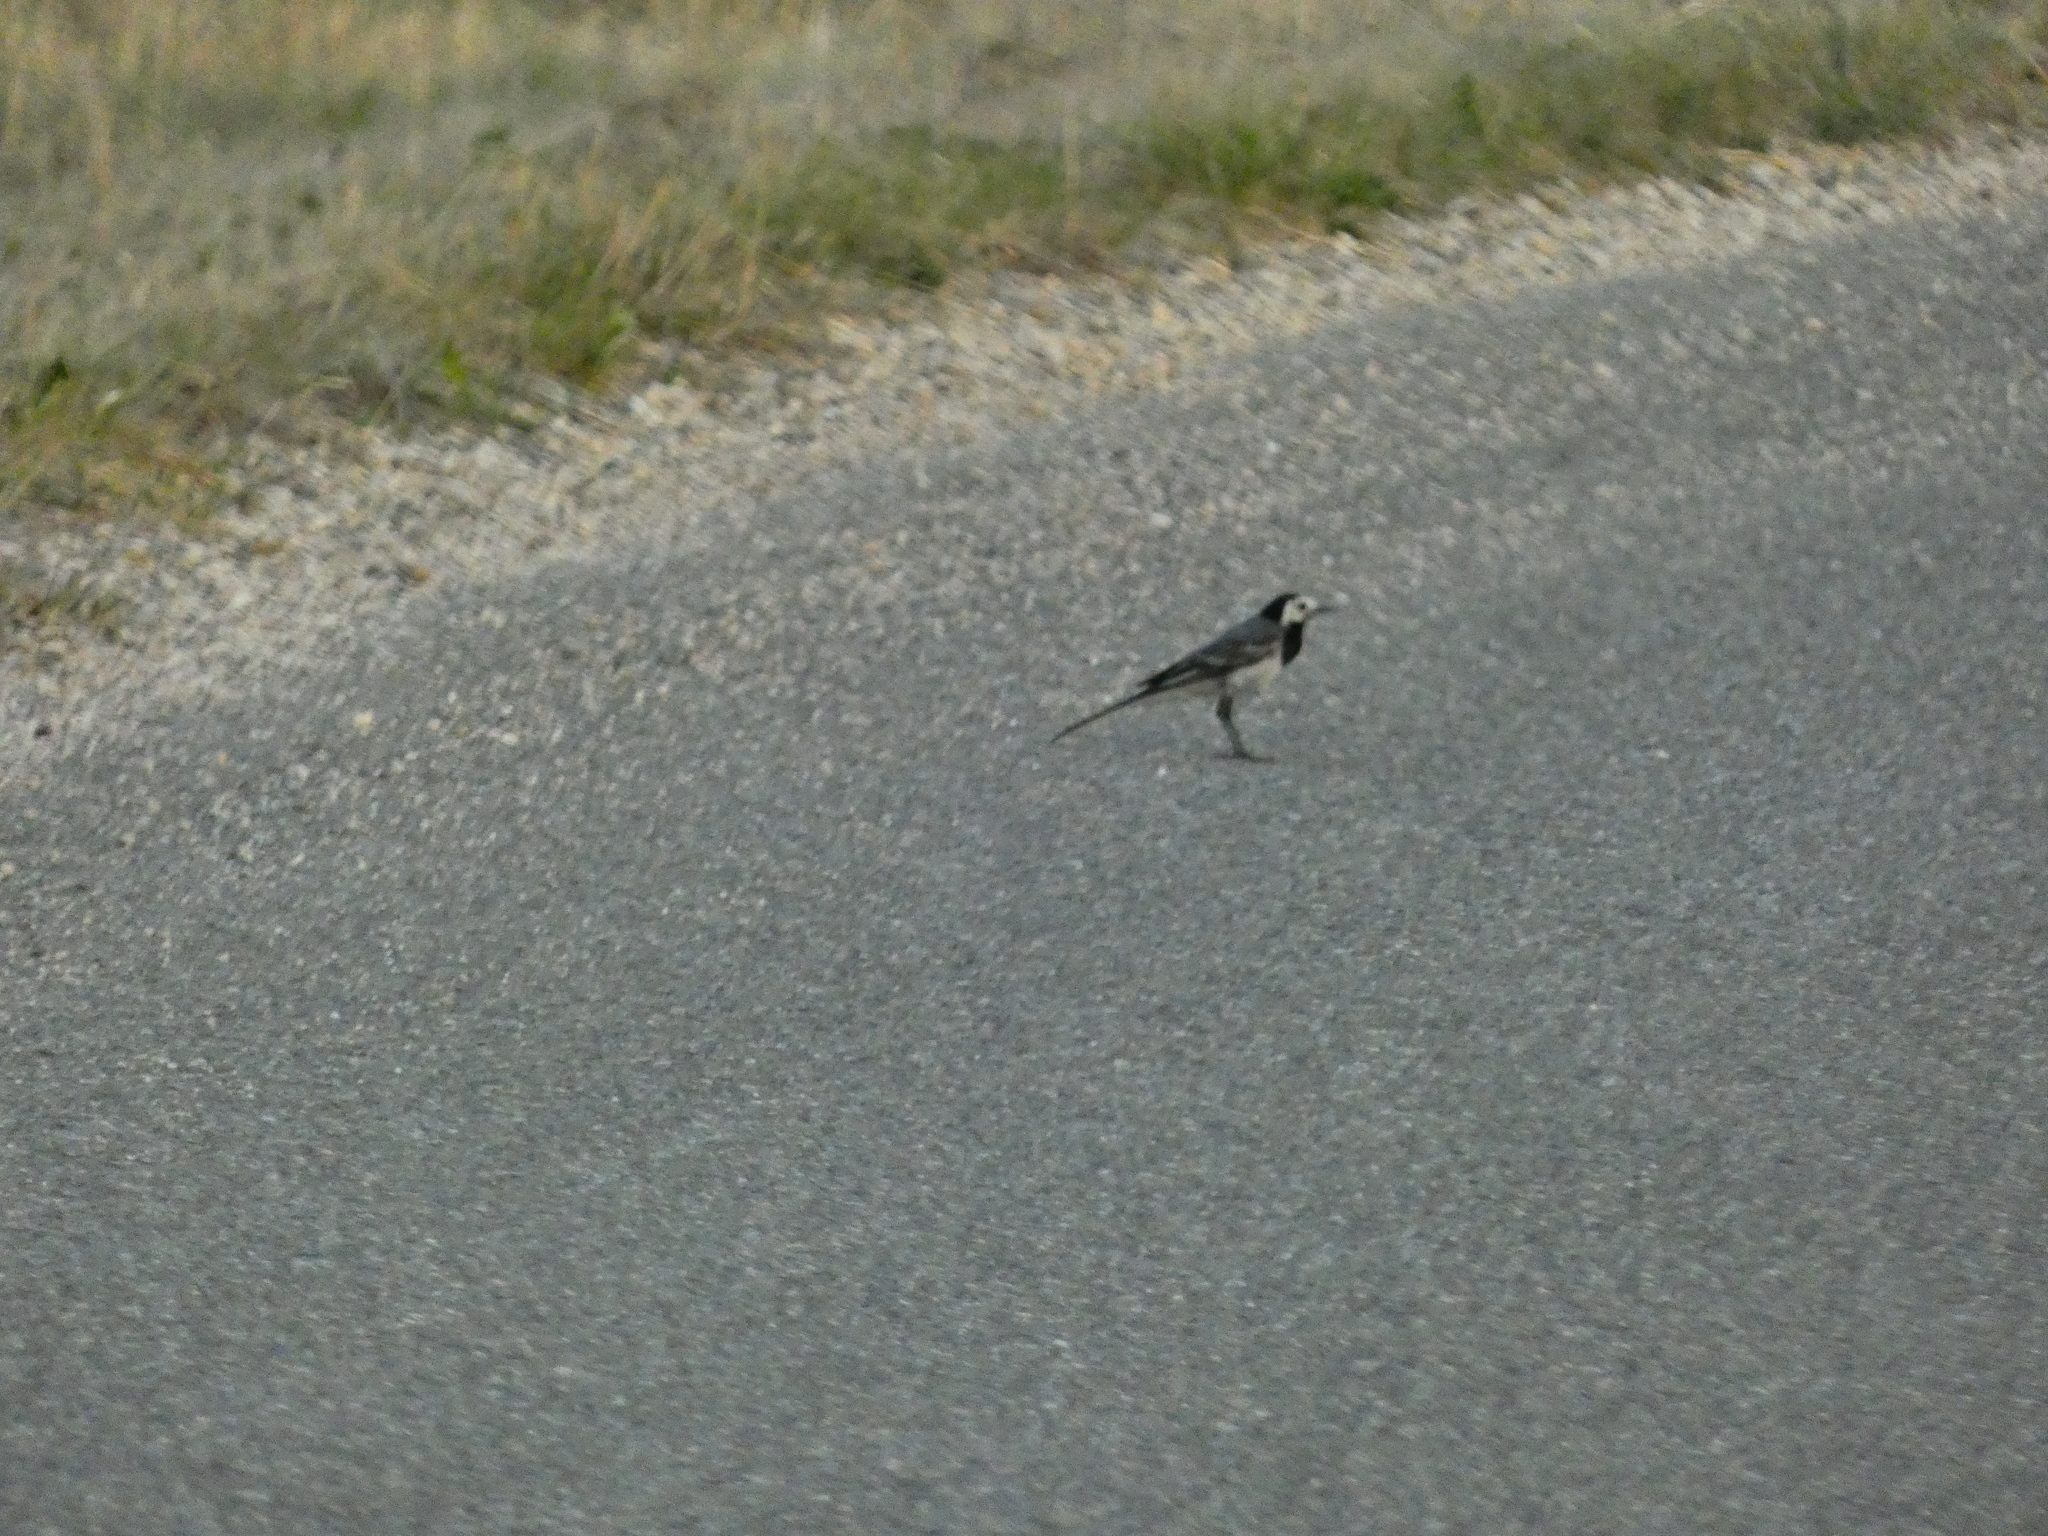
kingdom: Animalia
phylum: Chordata
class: Aves
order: Passeriformes
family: Motacillidae
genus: Motacilla
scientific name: Motacilla alba
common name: White wagtail
